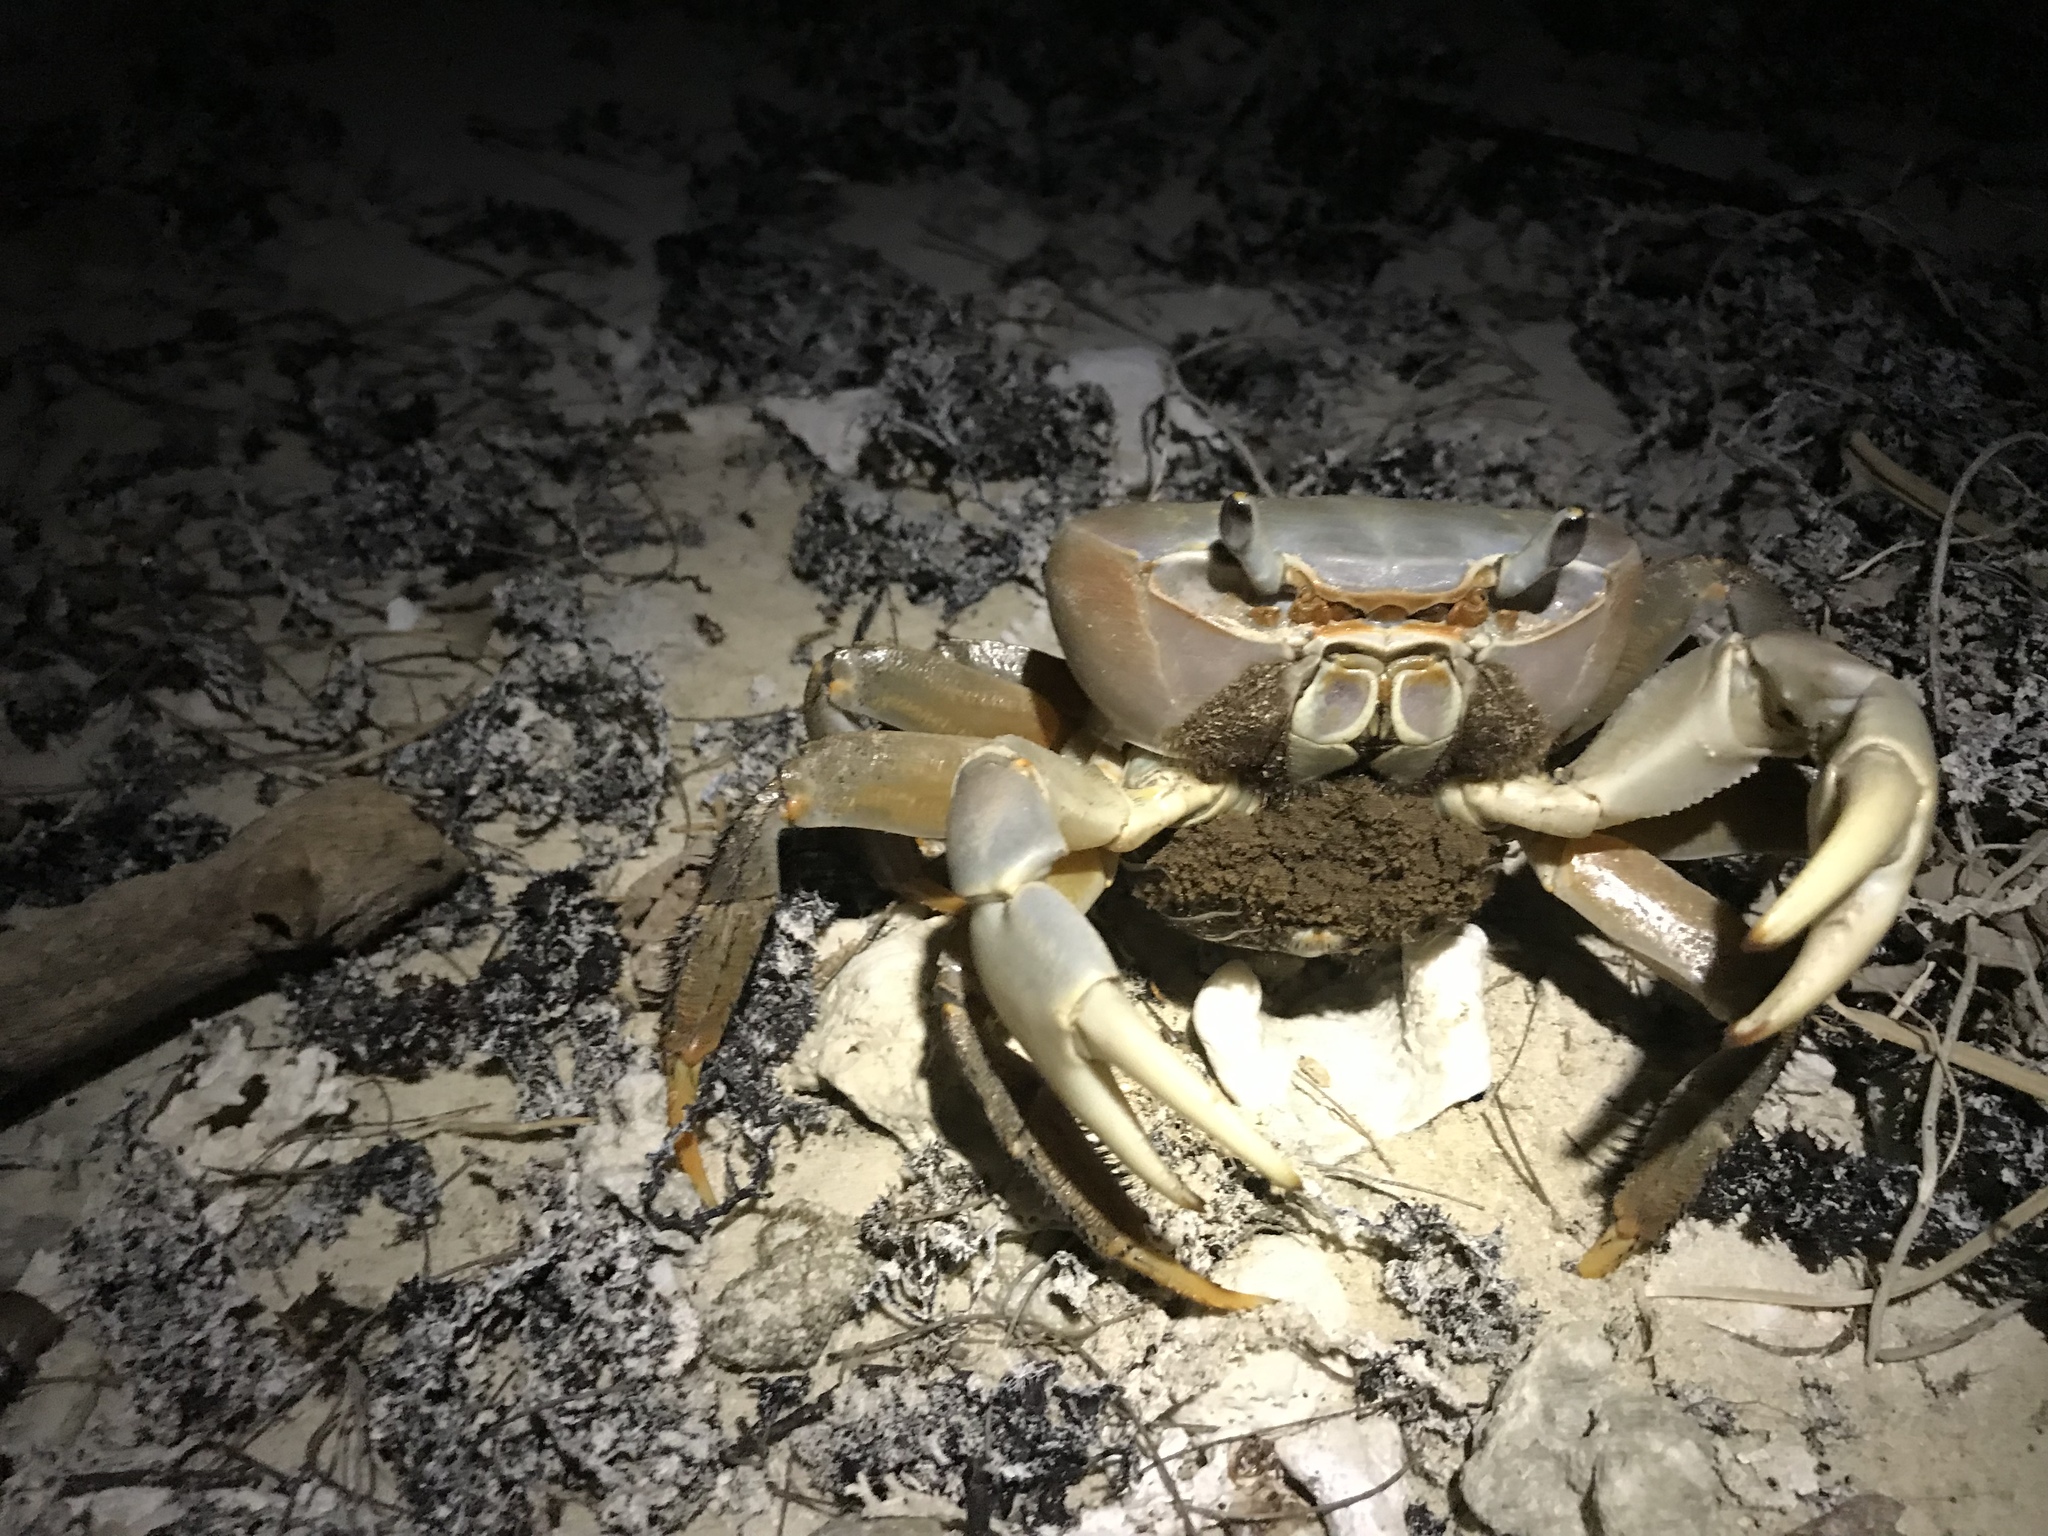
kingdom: Animalia
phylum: Arthropoda
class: Malacostraca
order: Decapoda
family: Gecarcinidae
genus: Cardisoma
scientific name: Cardisoma carnifex
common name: Brown land crab
